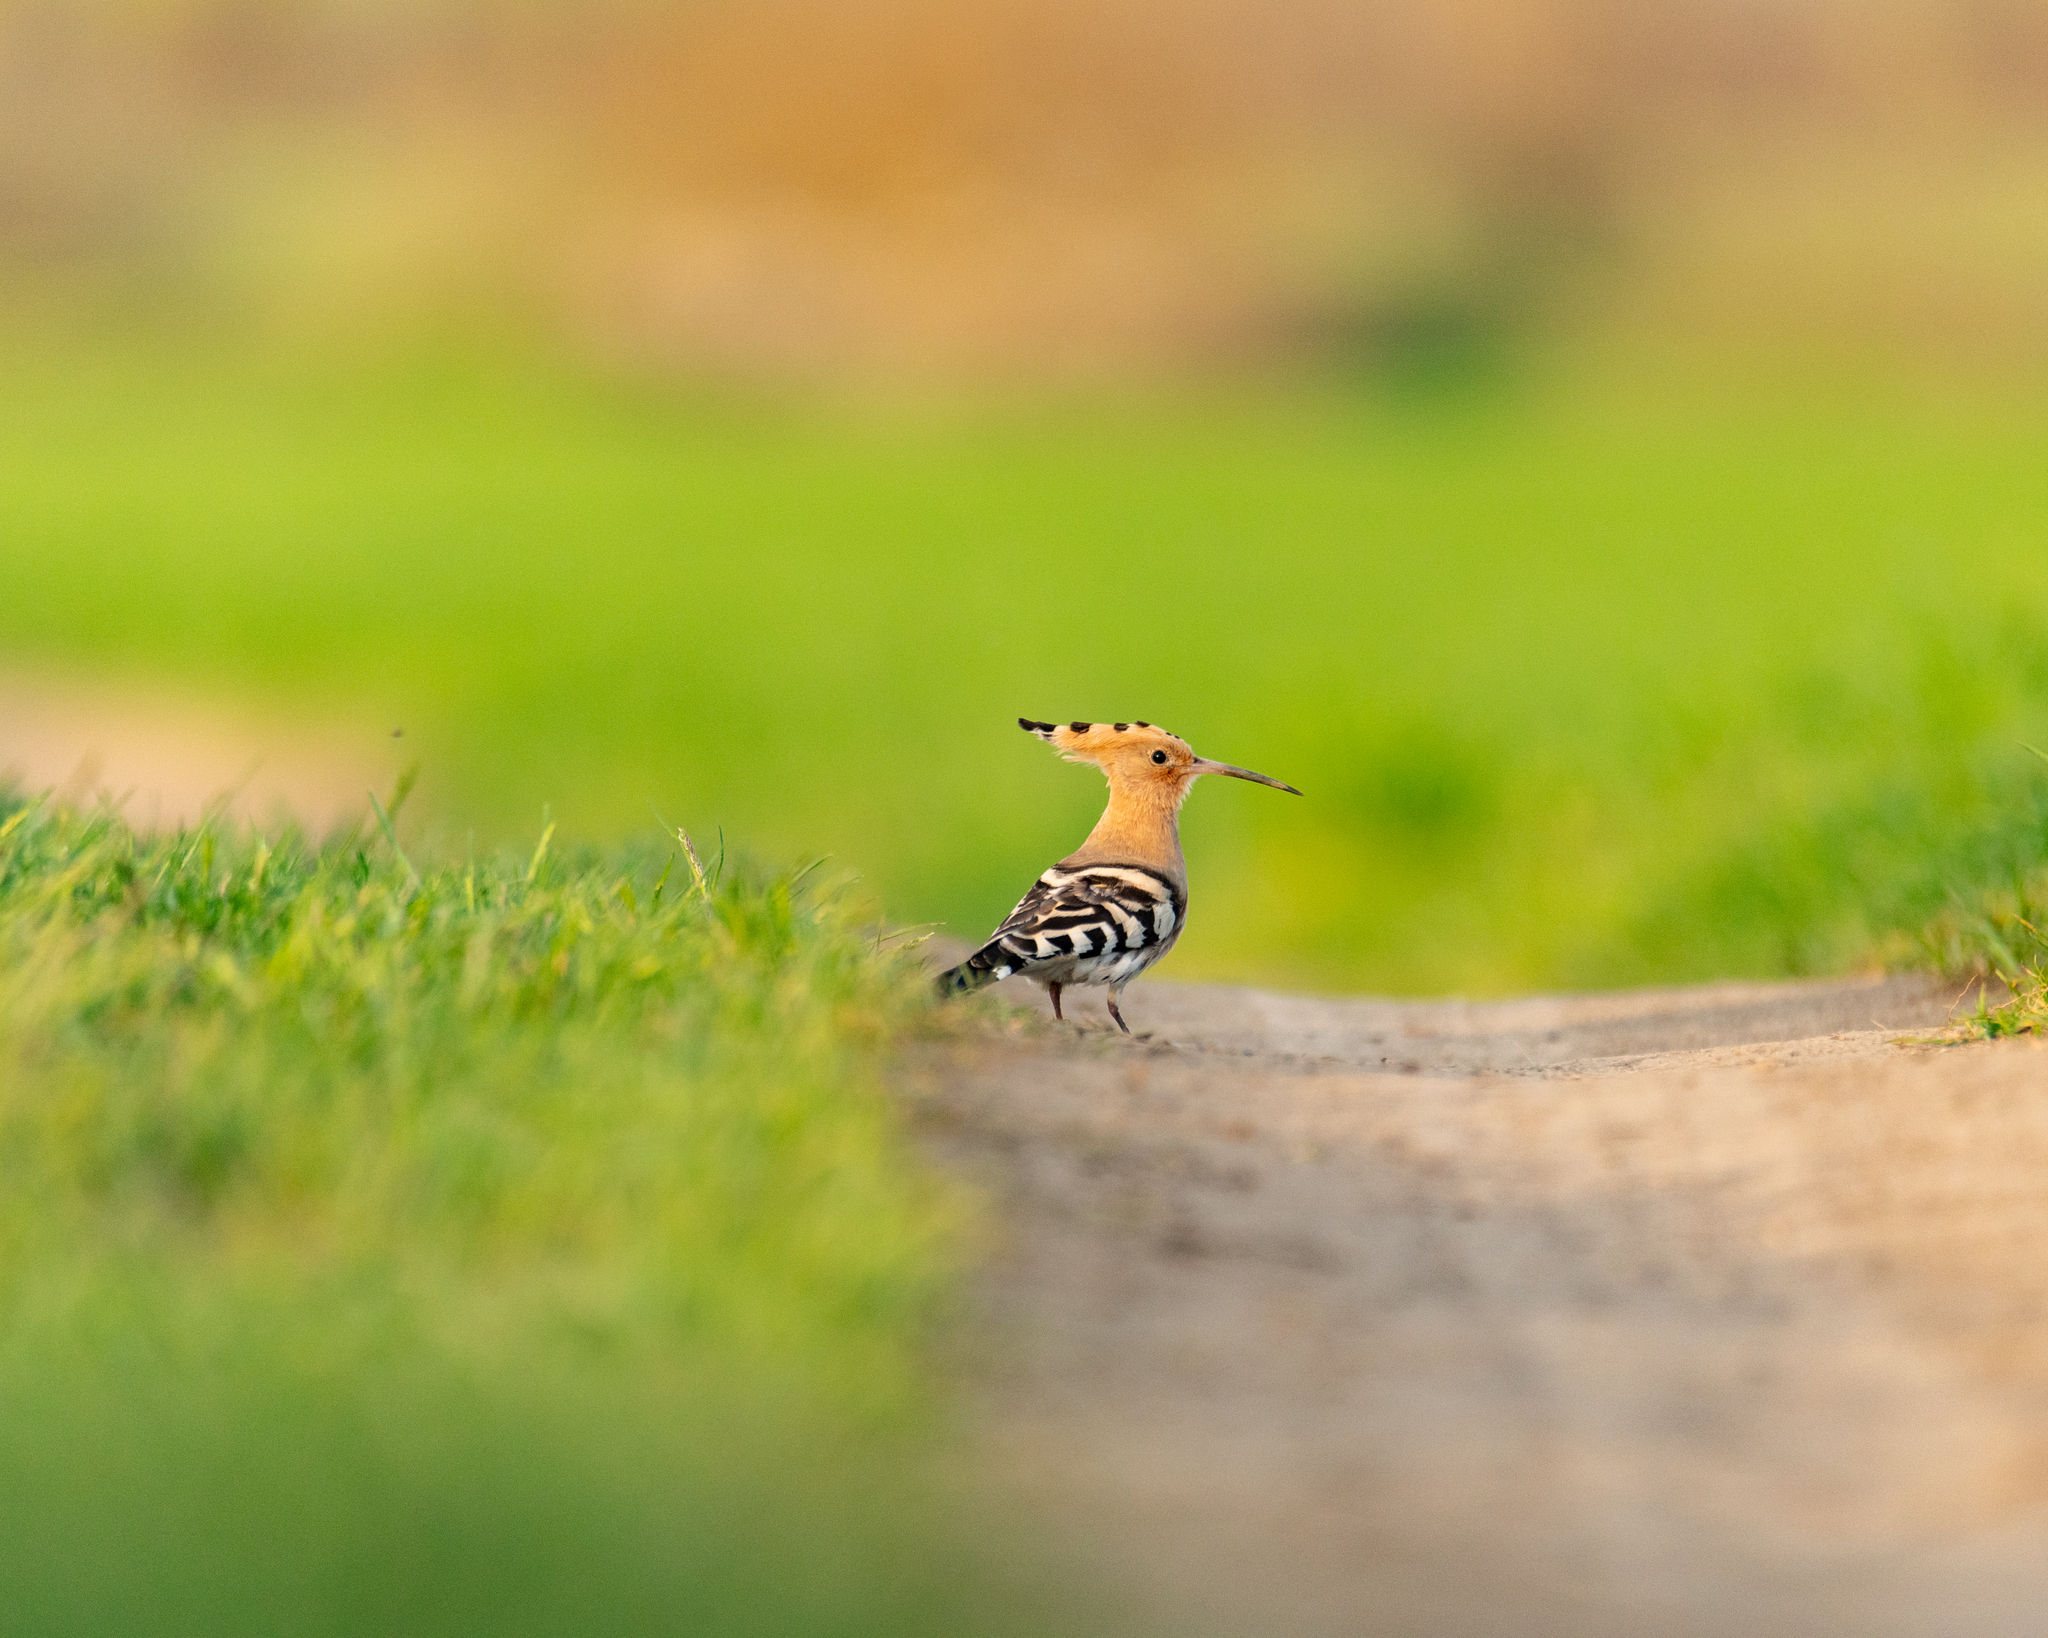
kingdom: Animalia
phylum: Chordata
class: Aves
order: Bucerotiformes
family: Upupidae
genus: Upupa
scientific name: Upupa epops
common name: Eurasian hoopoe
